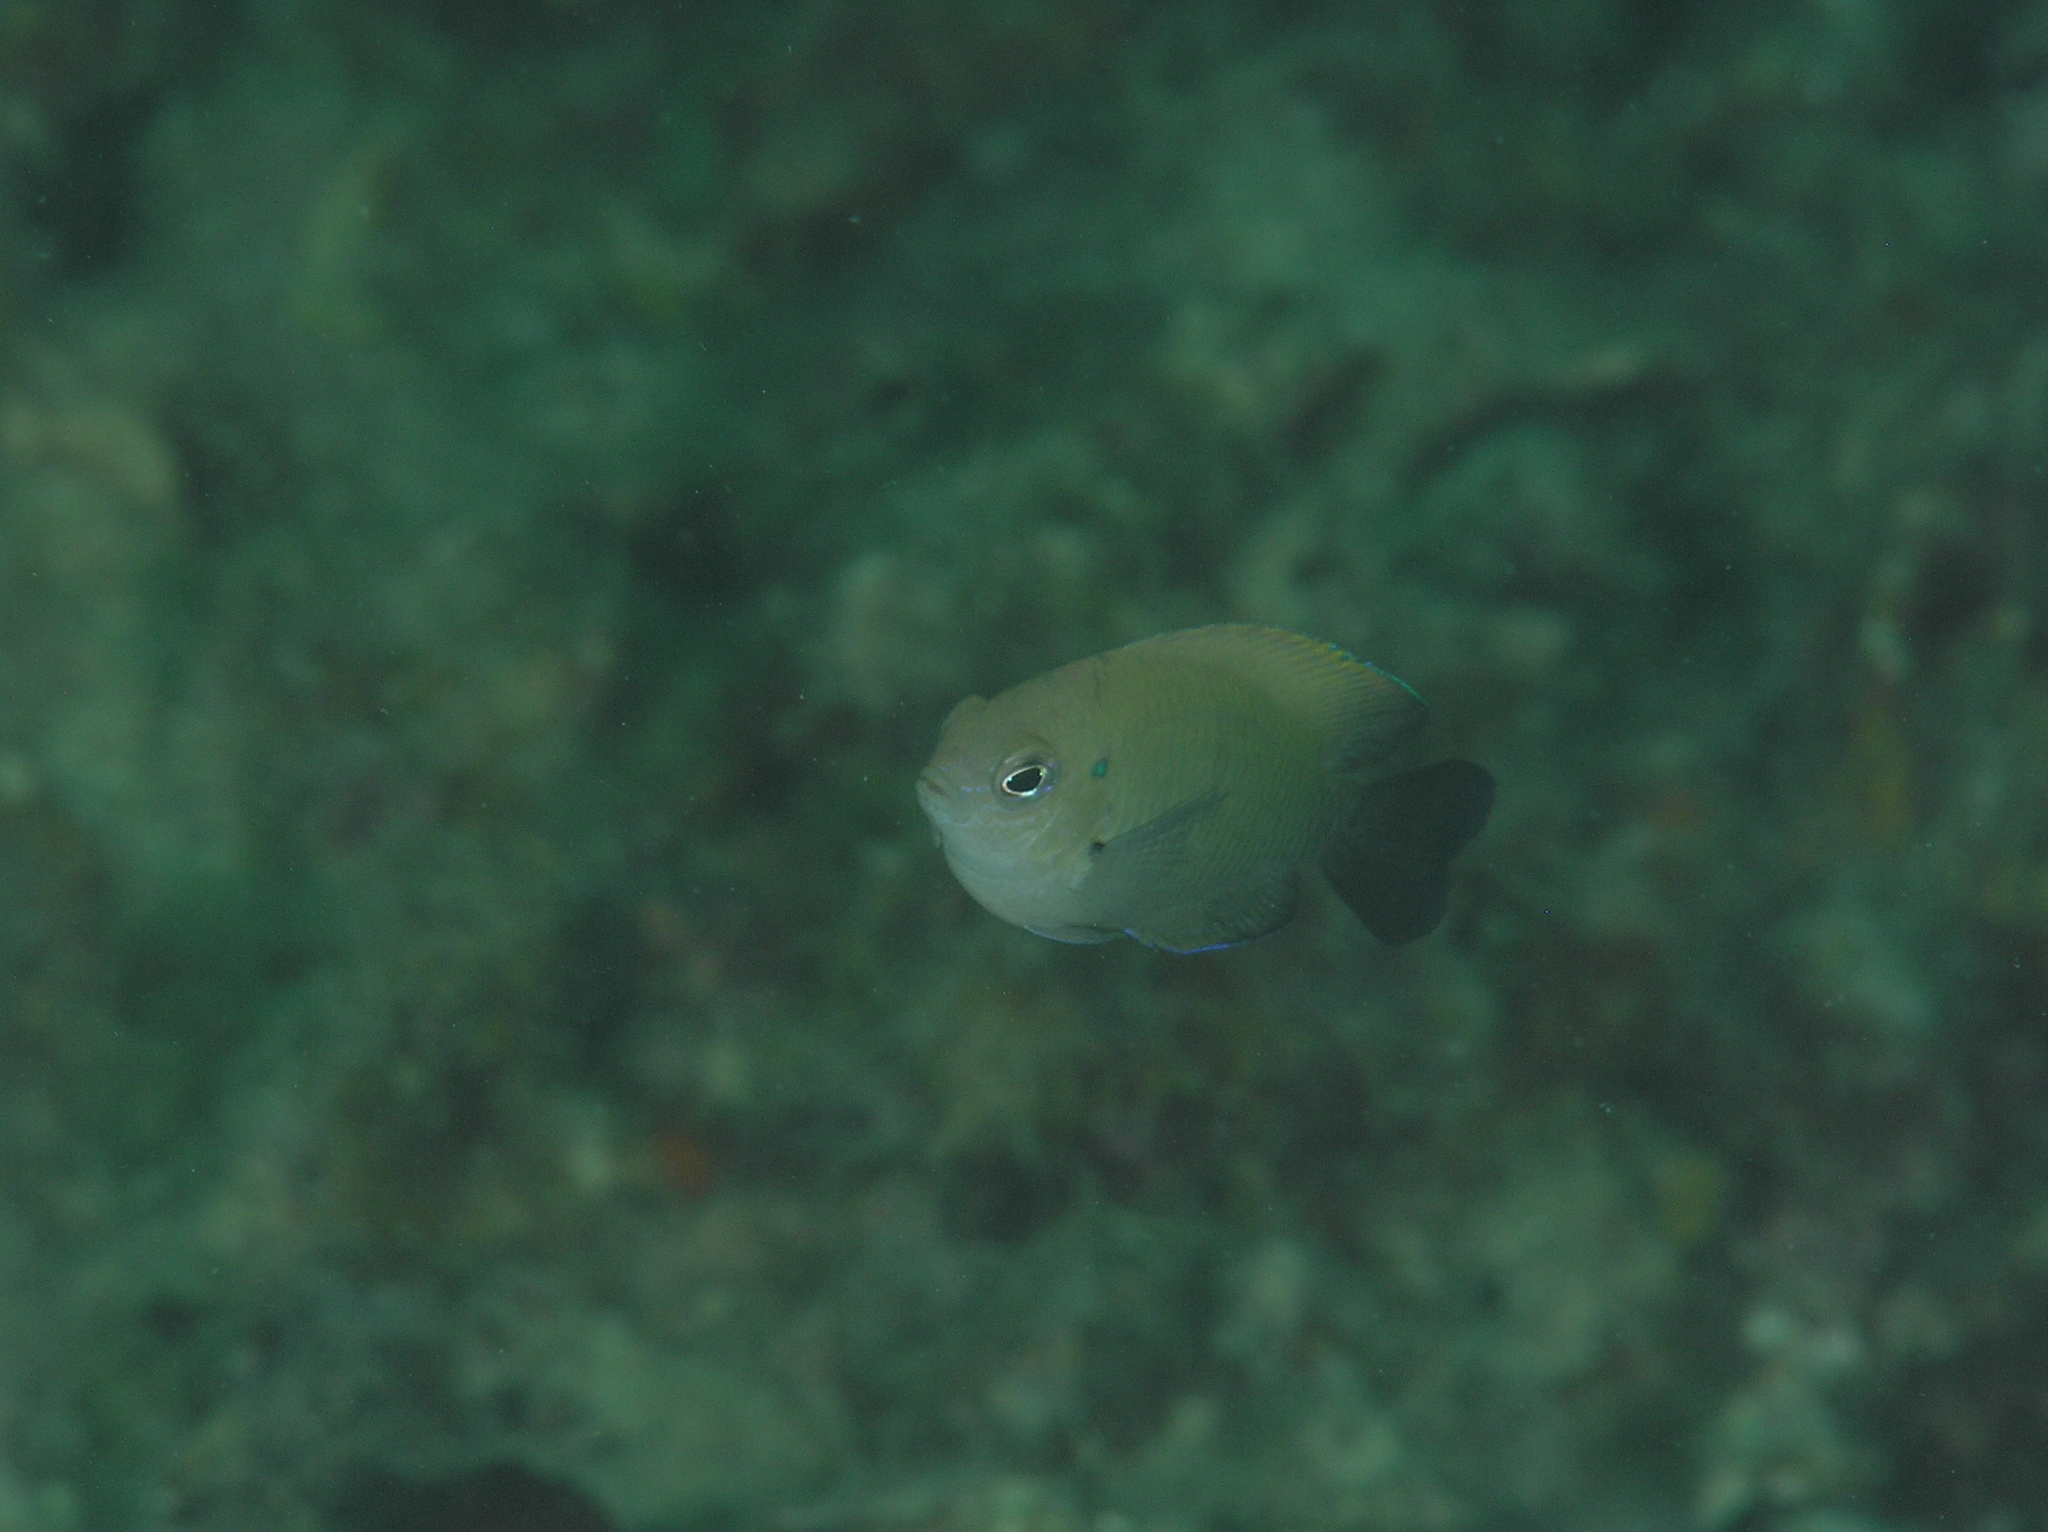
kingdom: Animalia
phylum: Chordata
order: Perciformes
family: Pomacentridae
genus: Pomacentrus
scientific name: Pomacentrus cuneatus
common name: Wedgespot damsel
